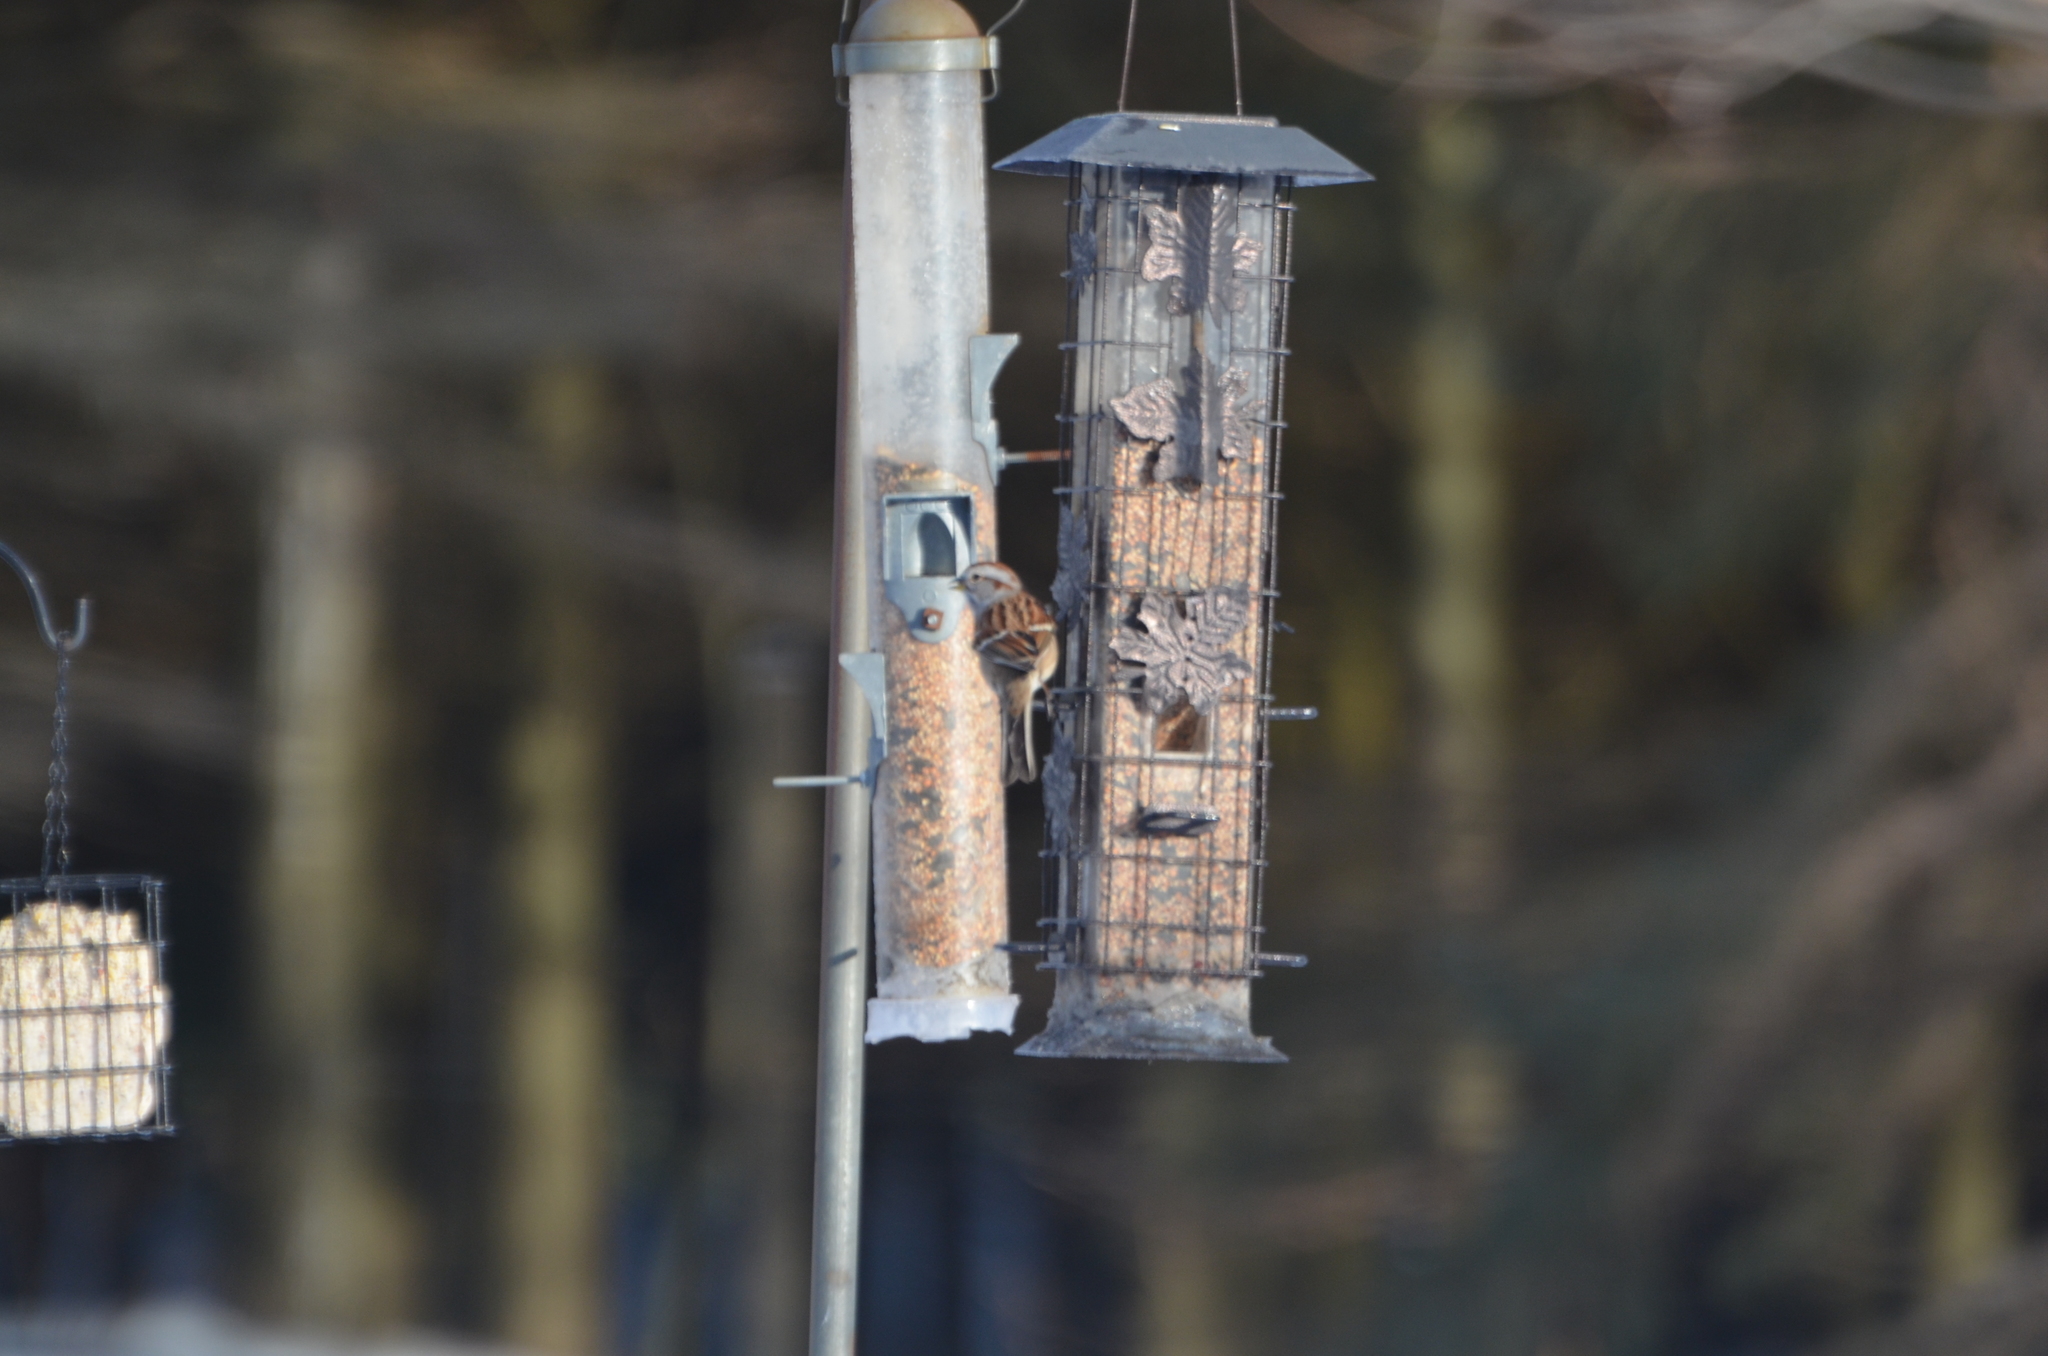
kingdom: Animalia
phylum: Chordata
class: Aves
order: Passeriformes
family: Passerellidae
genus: Spizelloides
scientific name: Spizelloides arborea
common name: American tree sparrow
